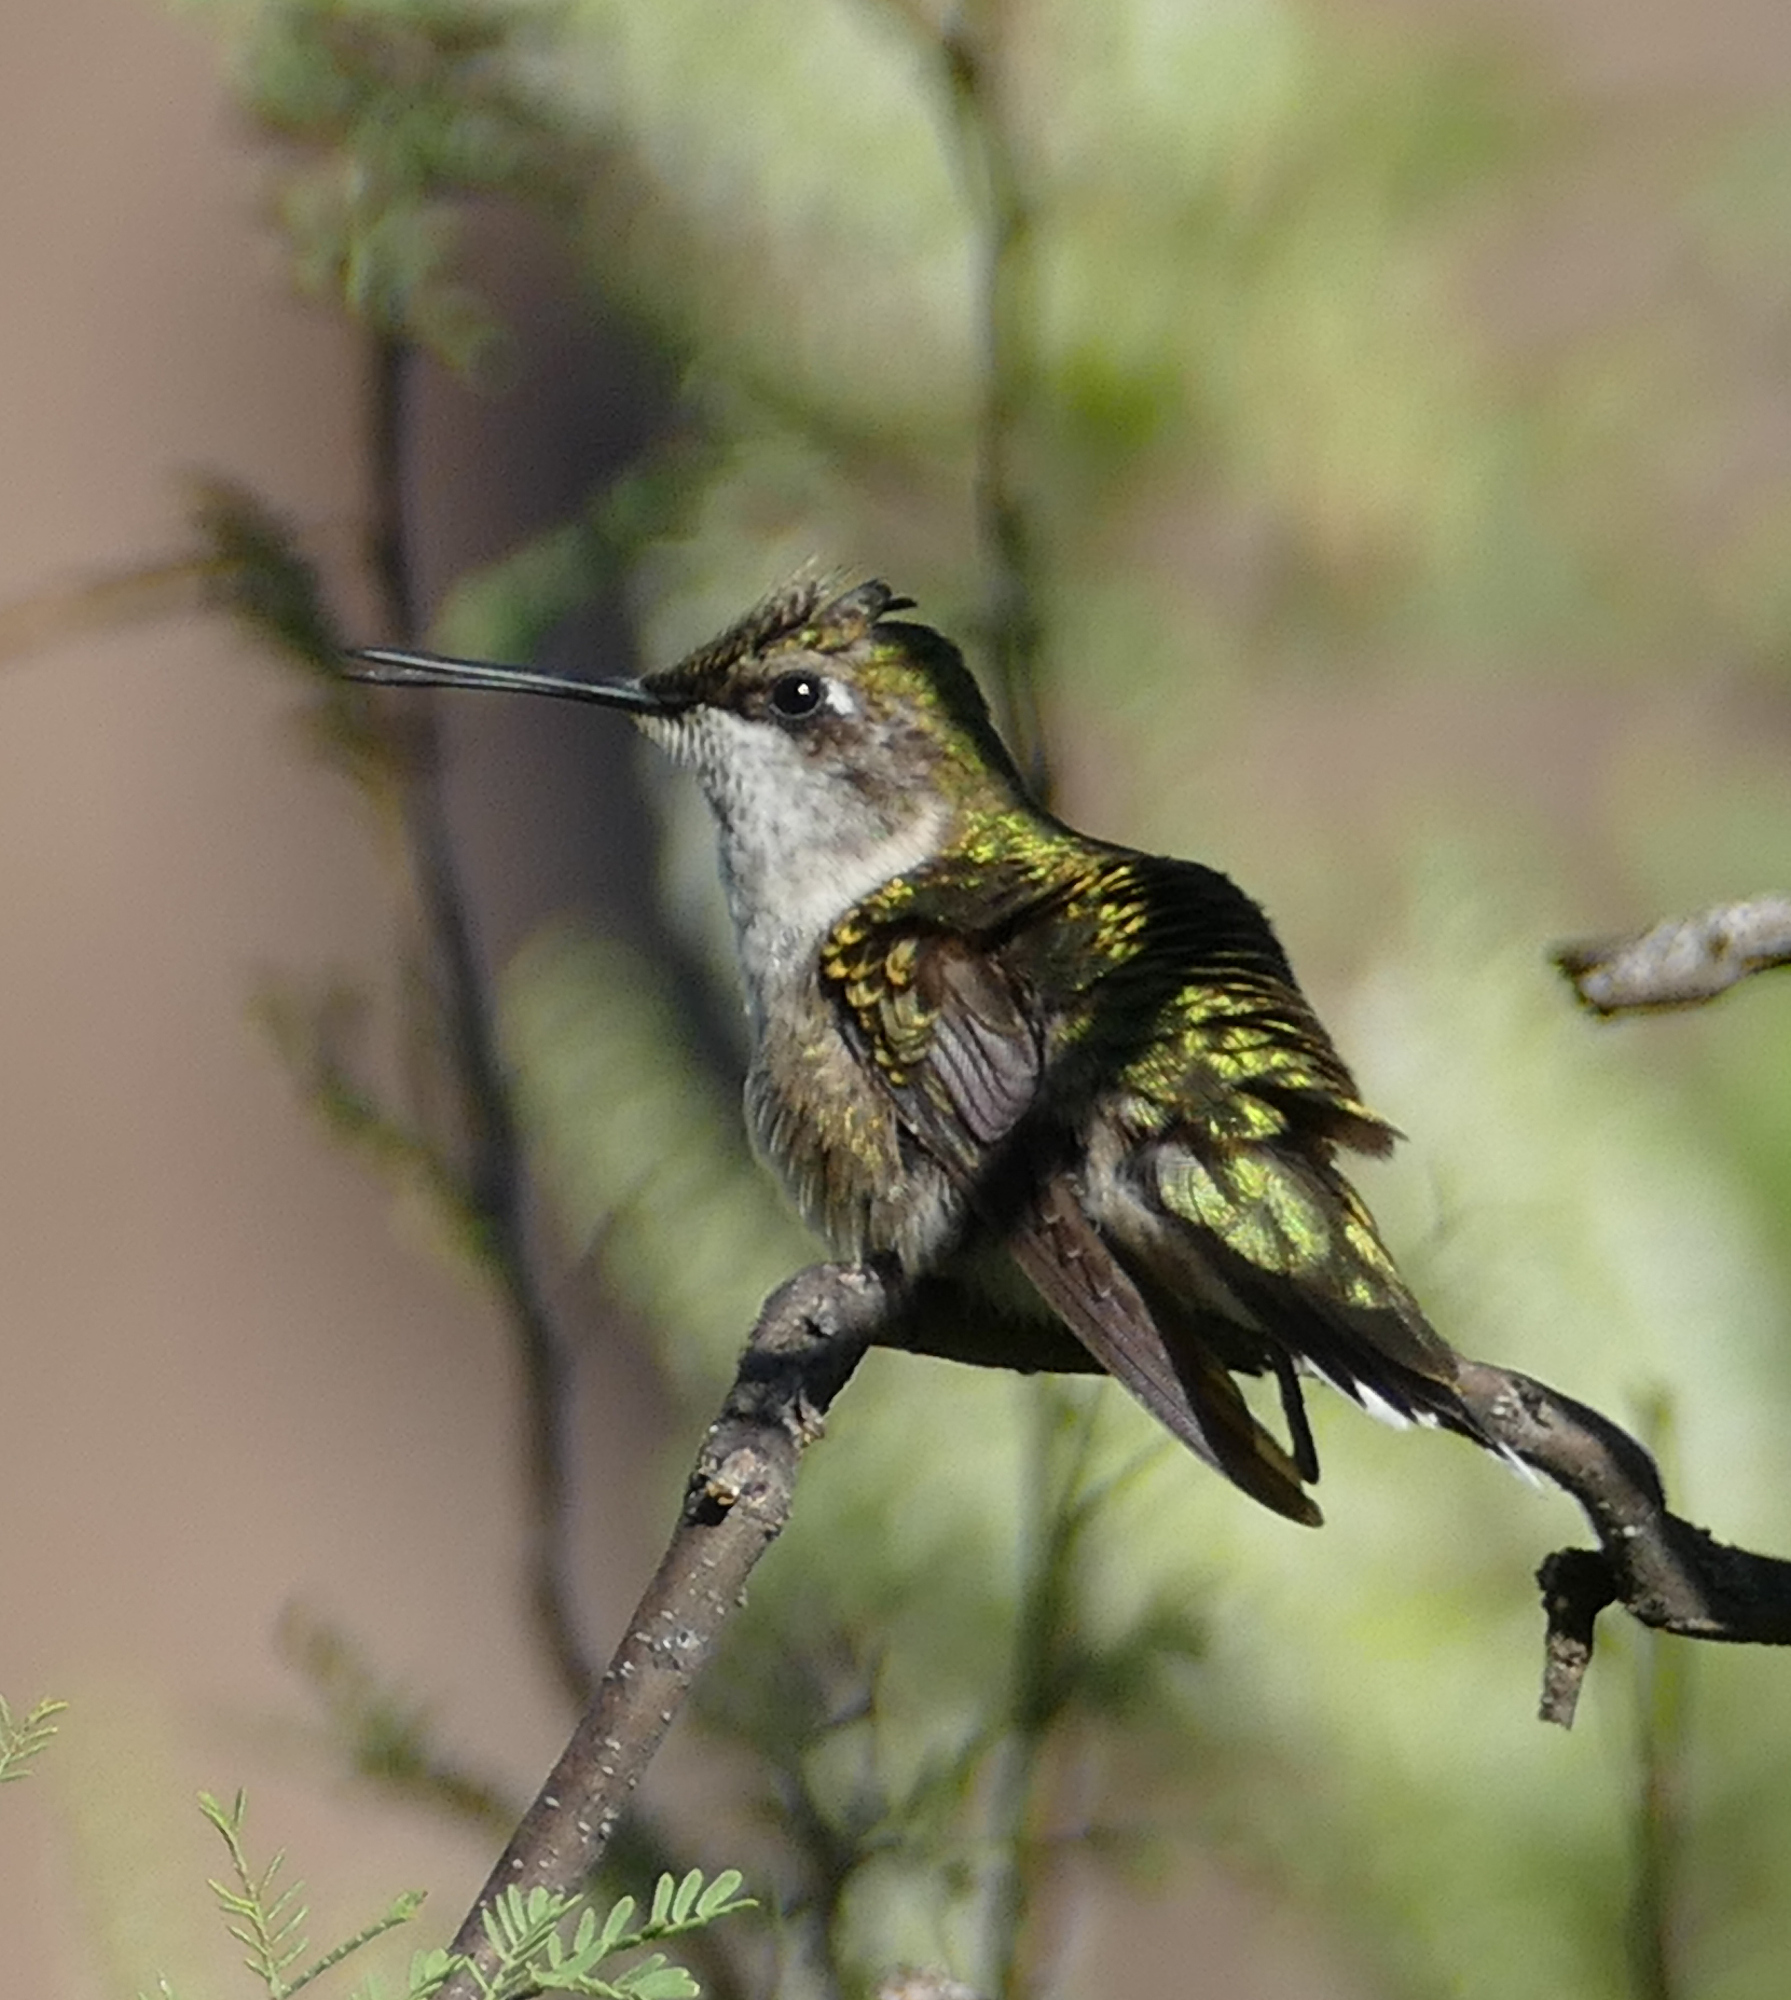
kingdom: Animalia
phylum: Chordata
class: Aves
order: Apodiformes
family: Trochilidae
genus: Archilochus
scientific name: Archilochus colubris
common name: Ruby-throated hummingbird
